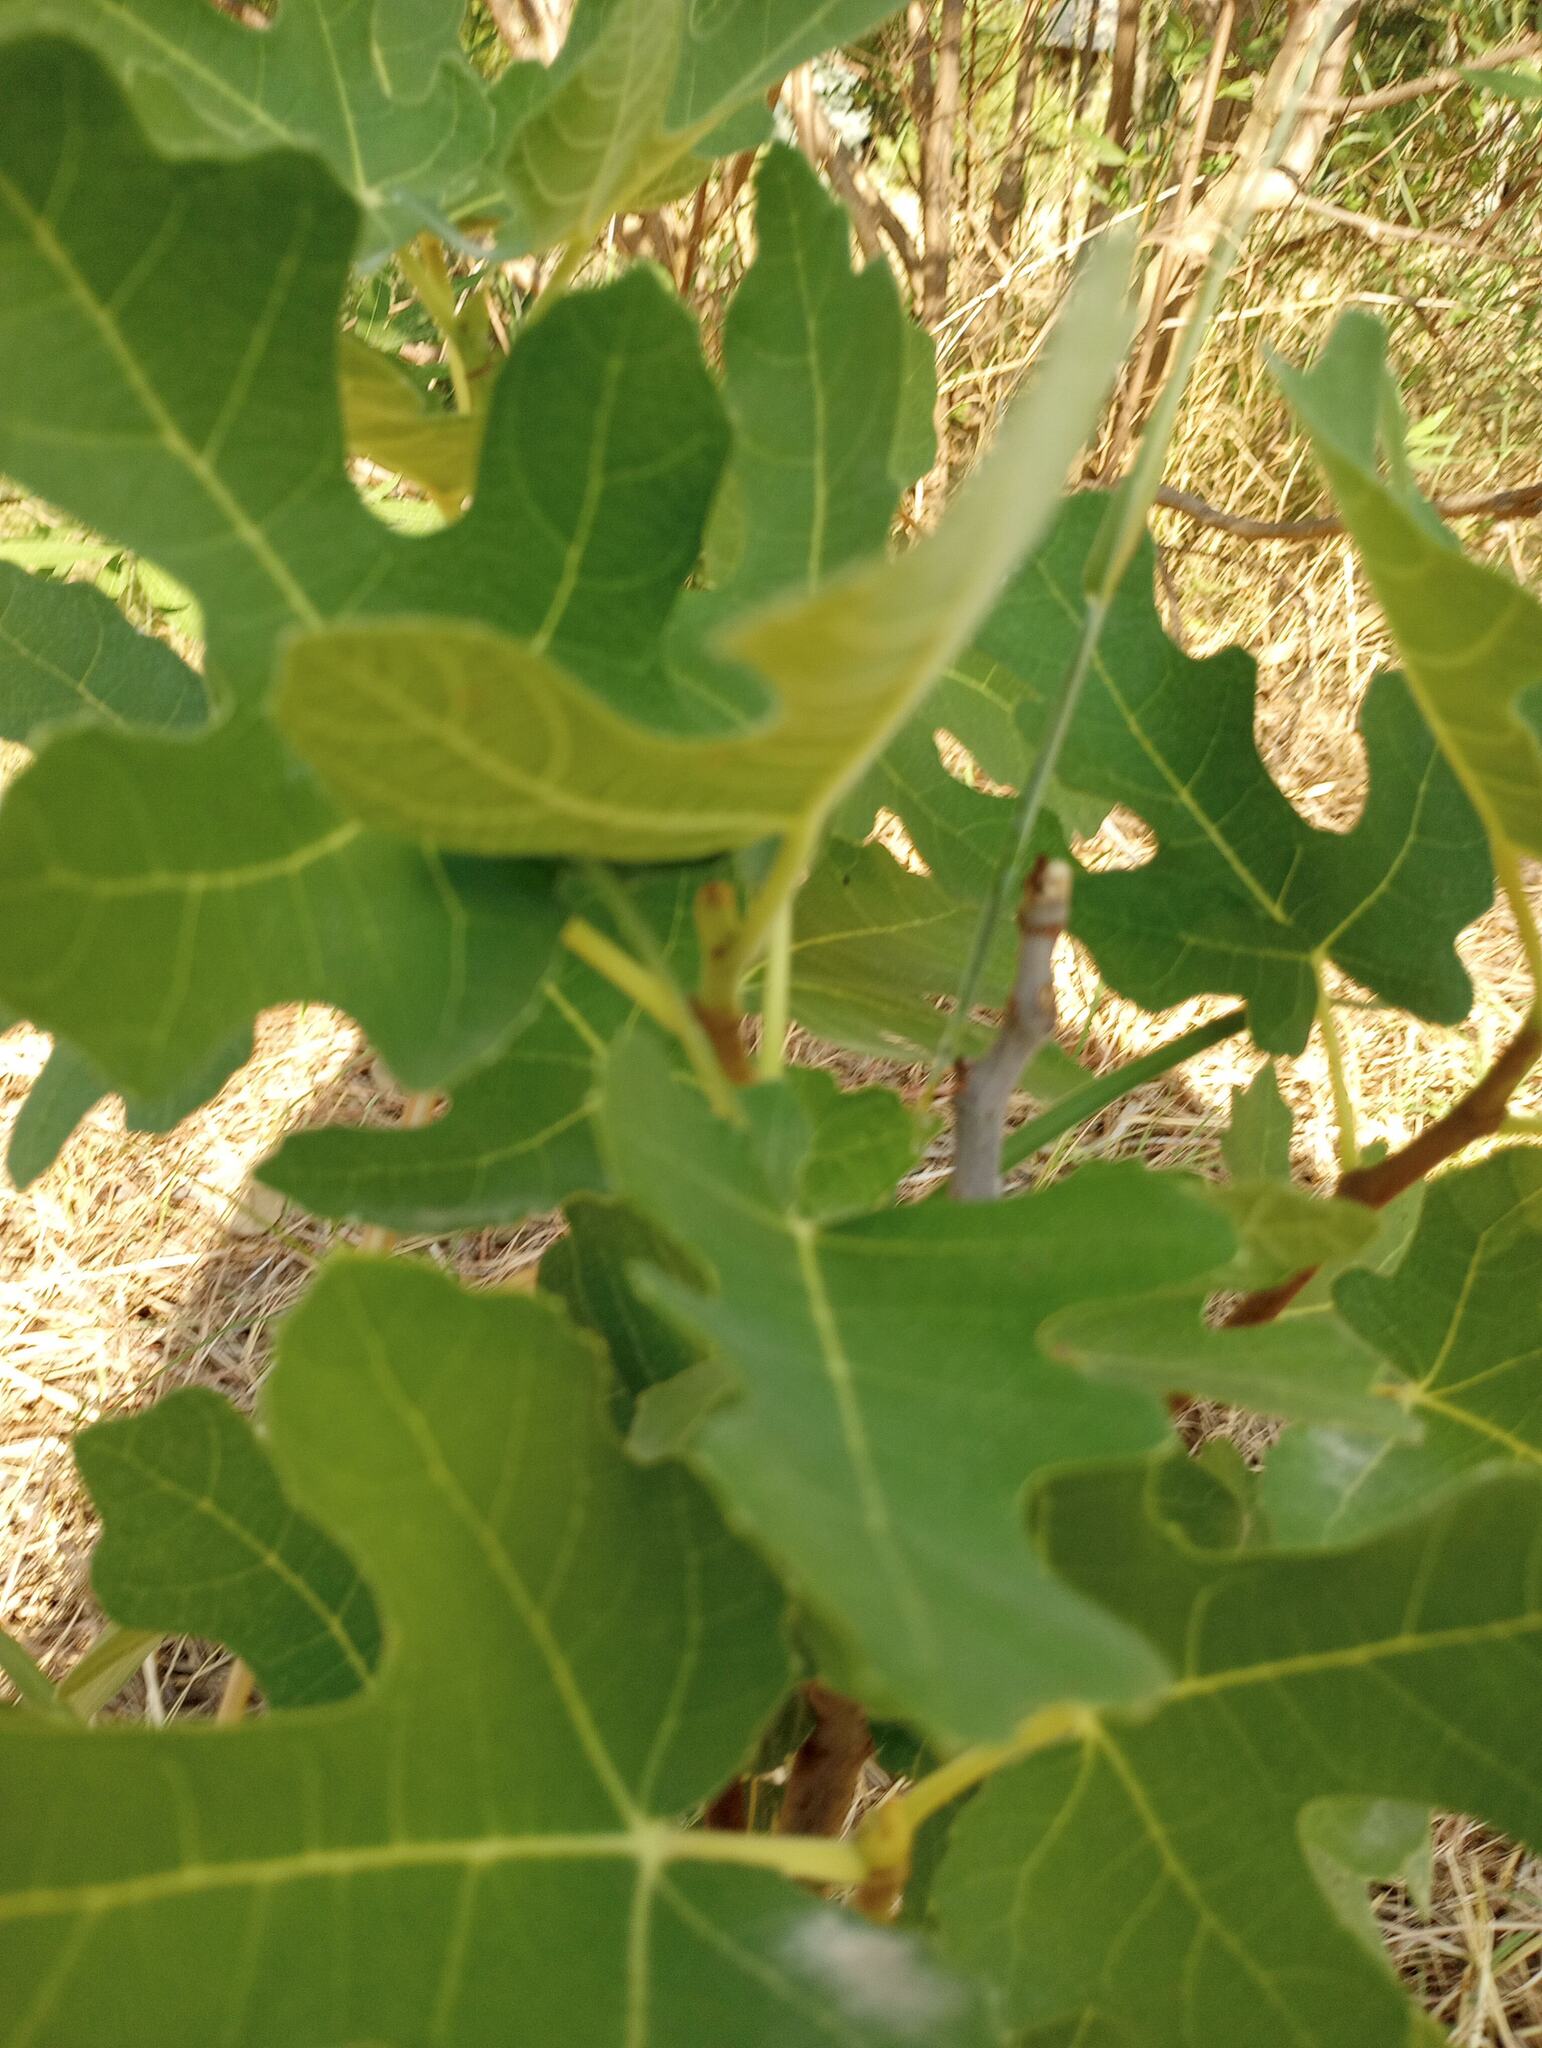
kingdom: Plantae
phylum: Tracheophyta
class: Magnoliopsida
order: Rosales
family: Moraceae
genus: Ficus
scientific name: Ficus carica
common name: Fig
